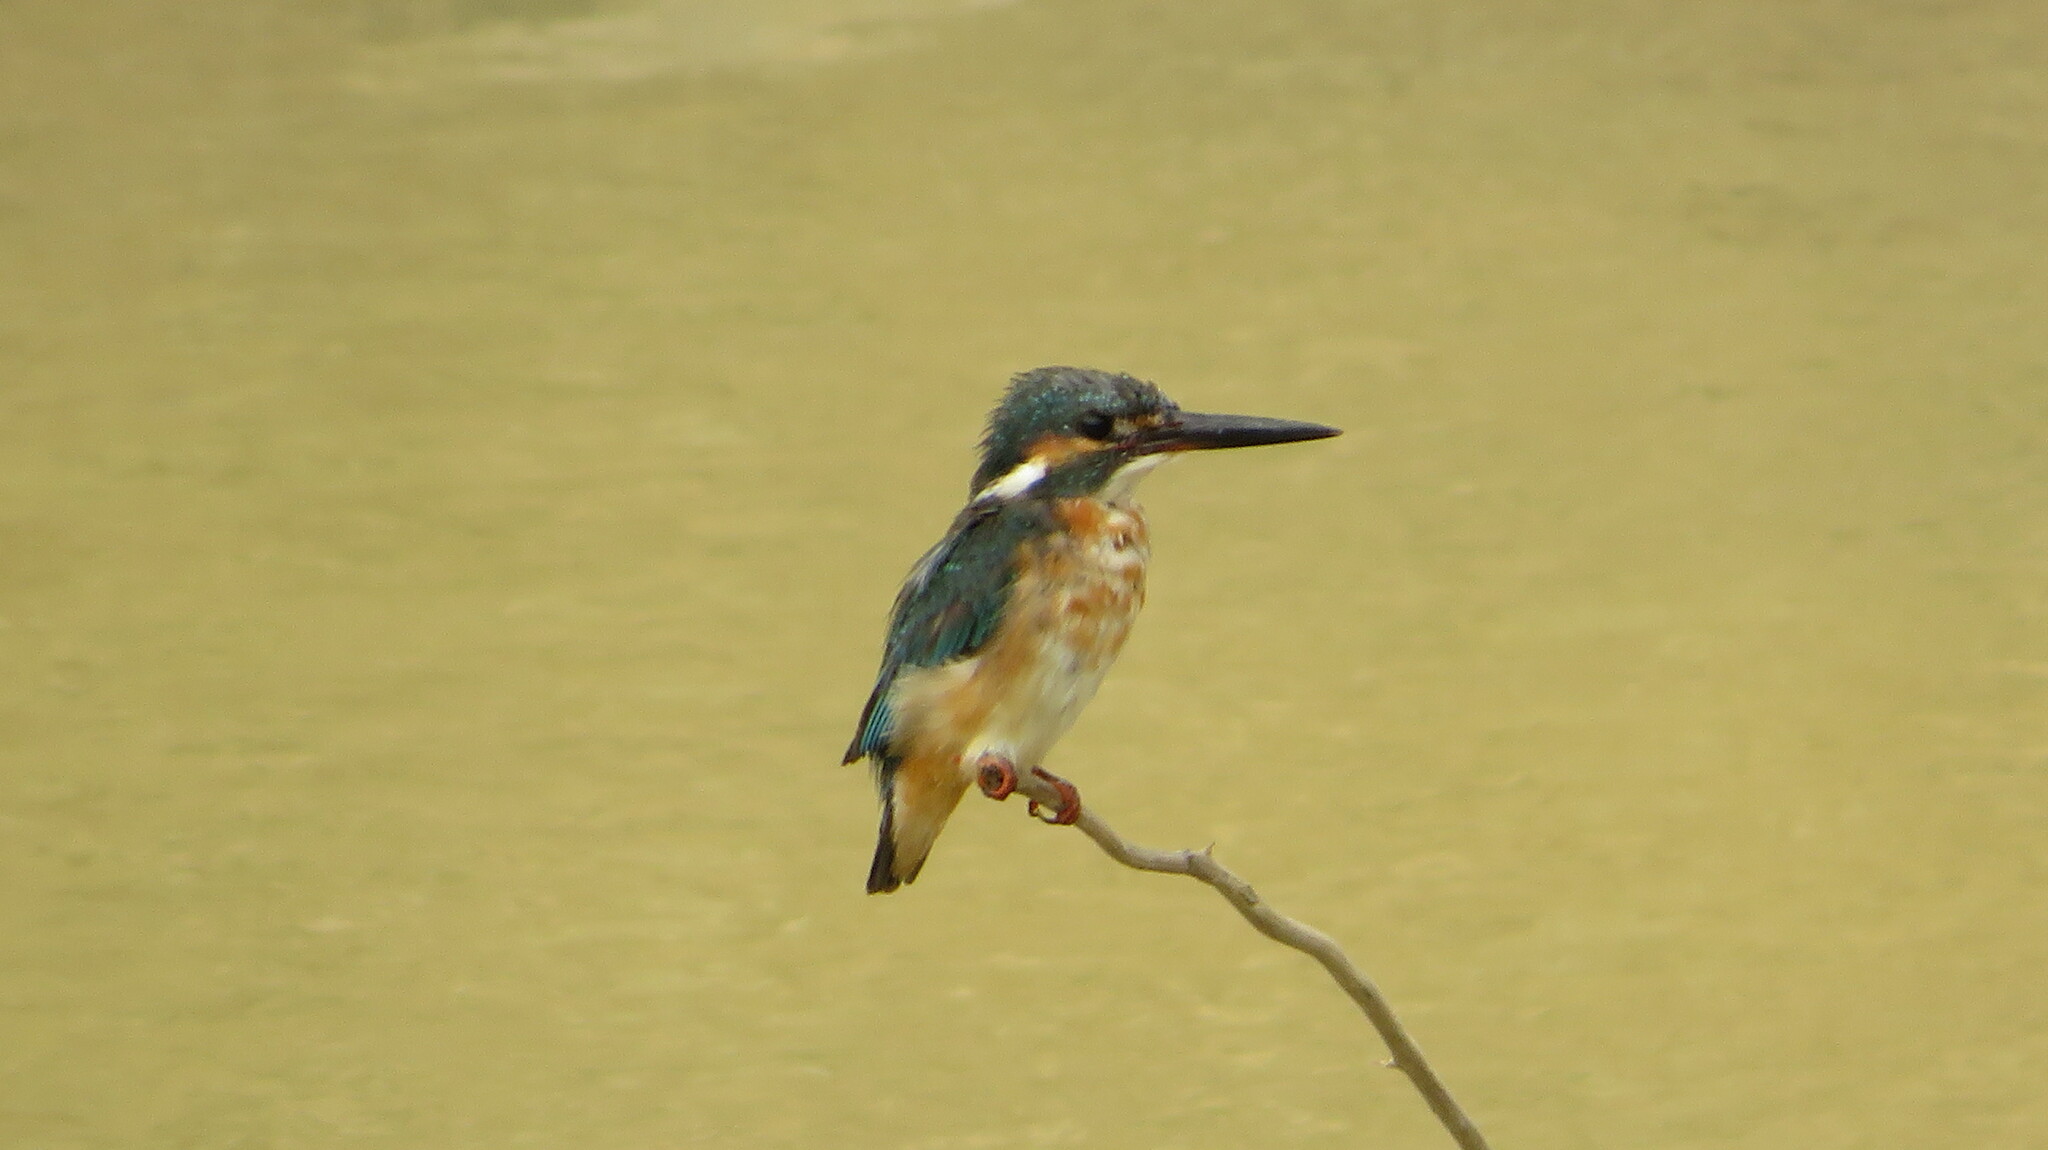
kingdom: Animalia
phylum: Chordata
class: Aves
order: Coraciiformes
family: Alcedinidae
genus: Alcedo
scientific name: Alcedo atthis
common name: Common kingfisher
